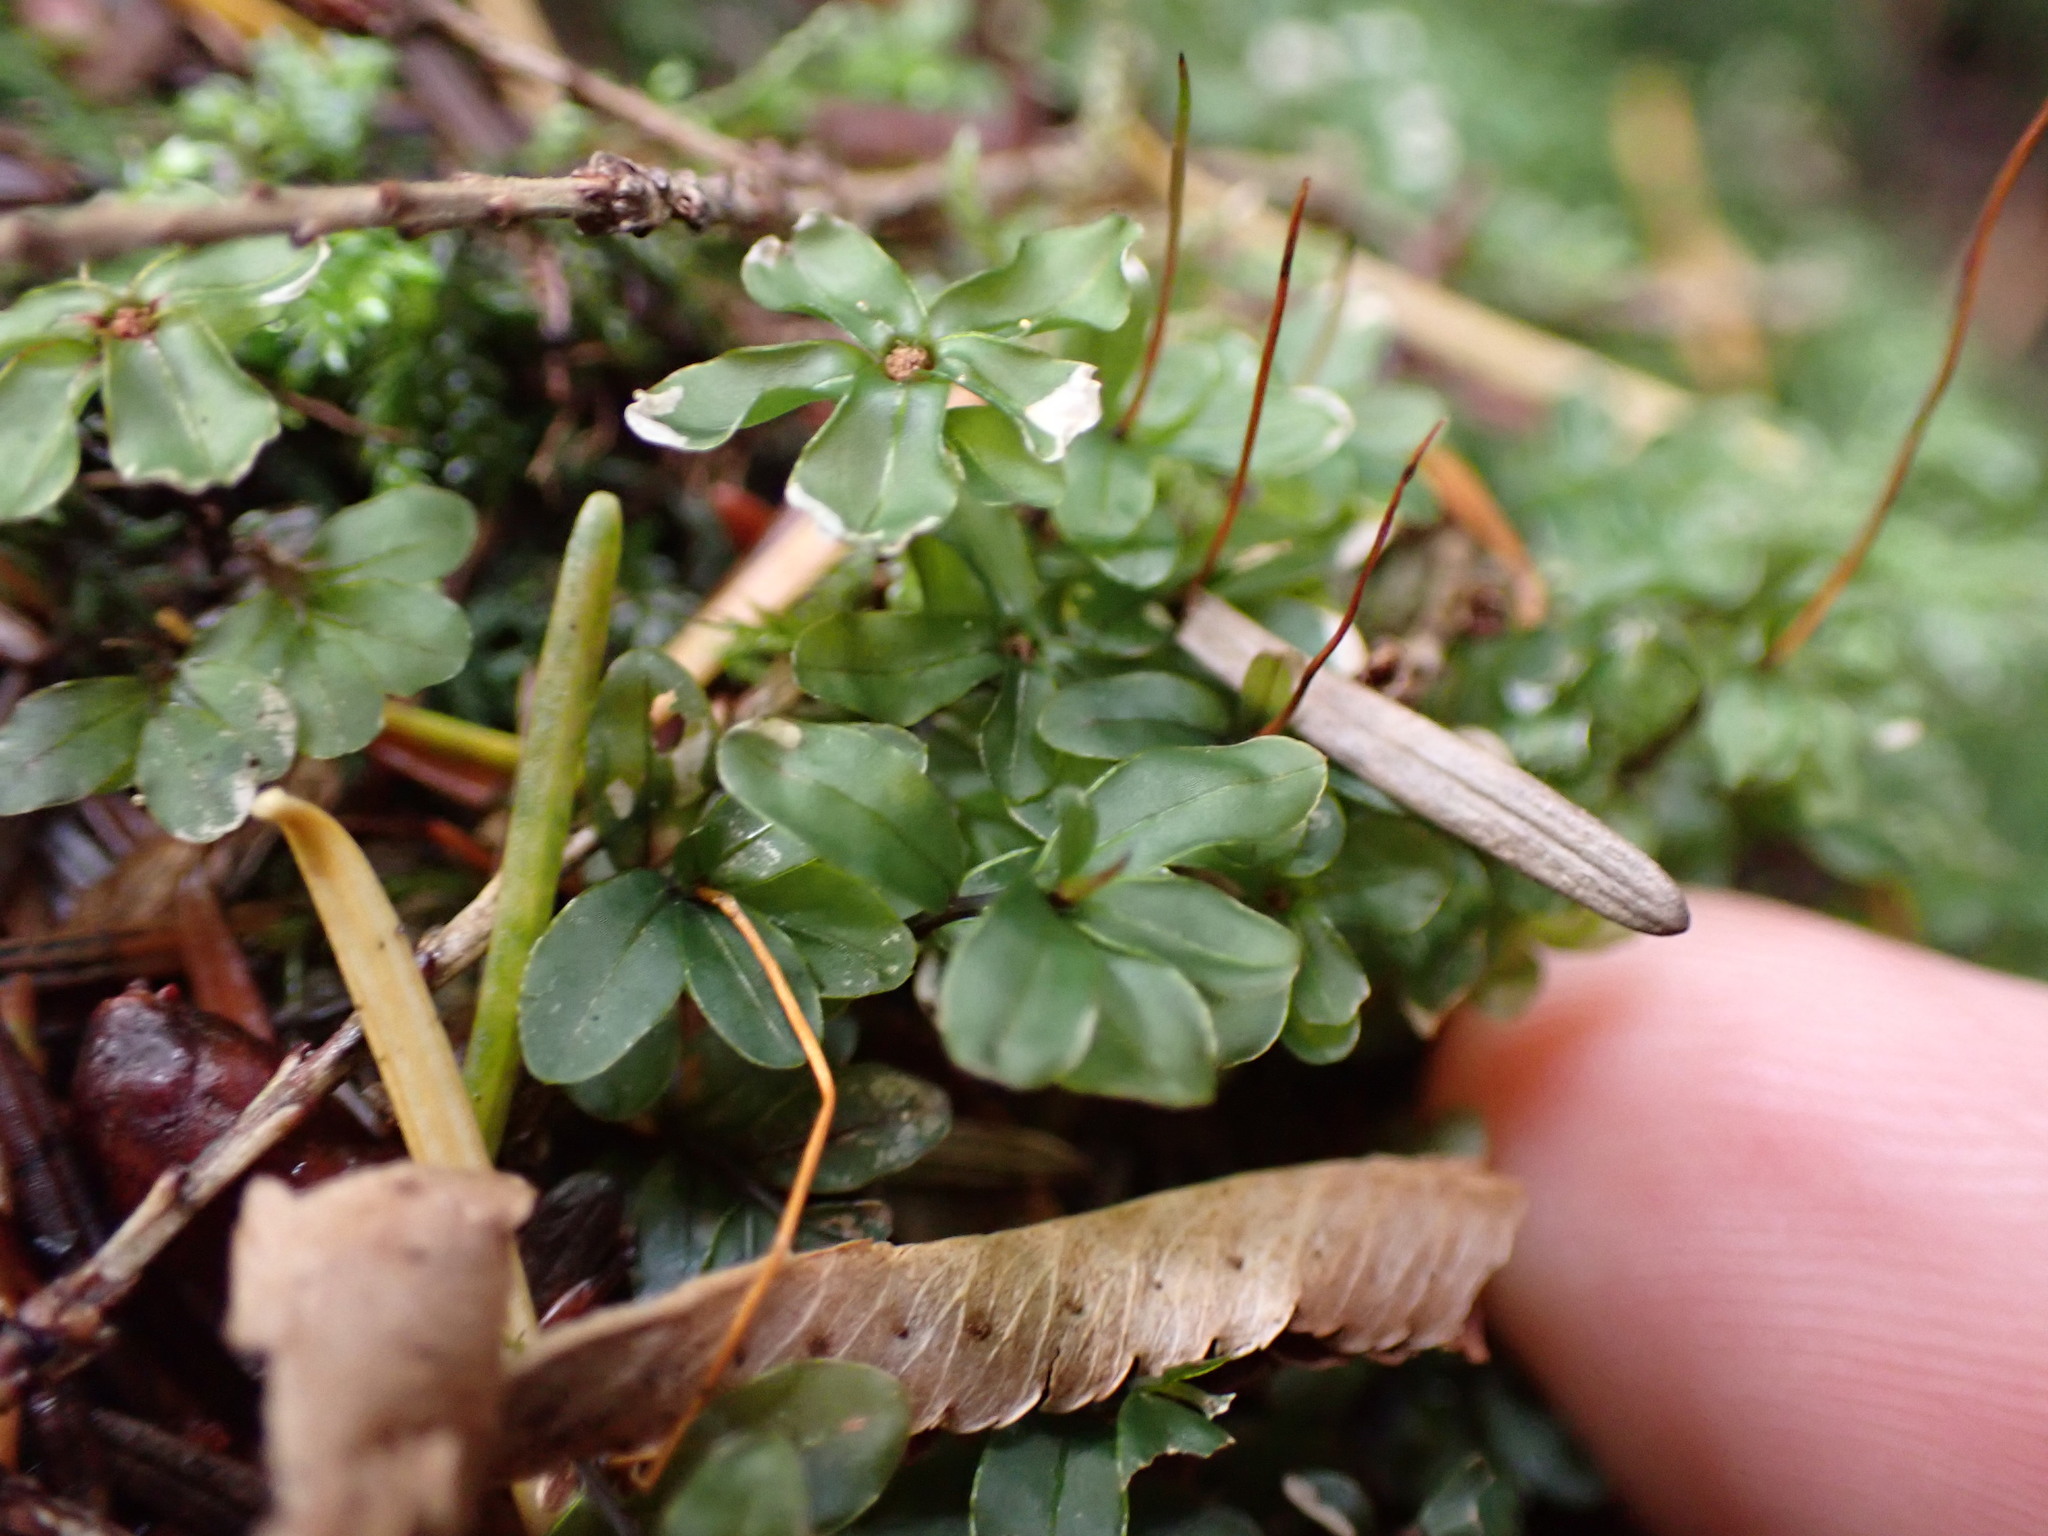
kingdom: Plantae
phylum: Bryophyta
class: Bryopsida
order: Bryales
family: Mniaceae
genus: Rhizomnium
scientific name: Rhizomnium glabrescens
